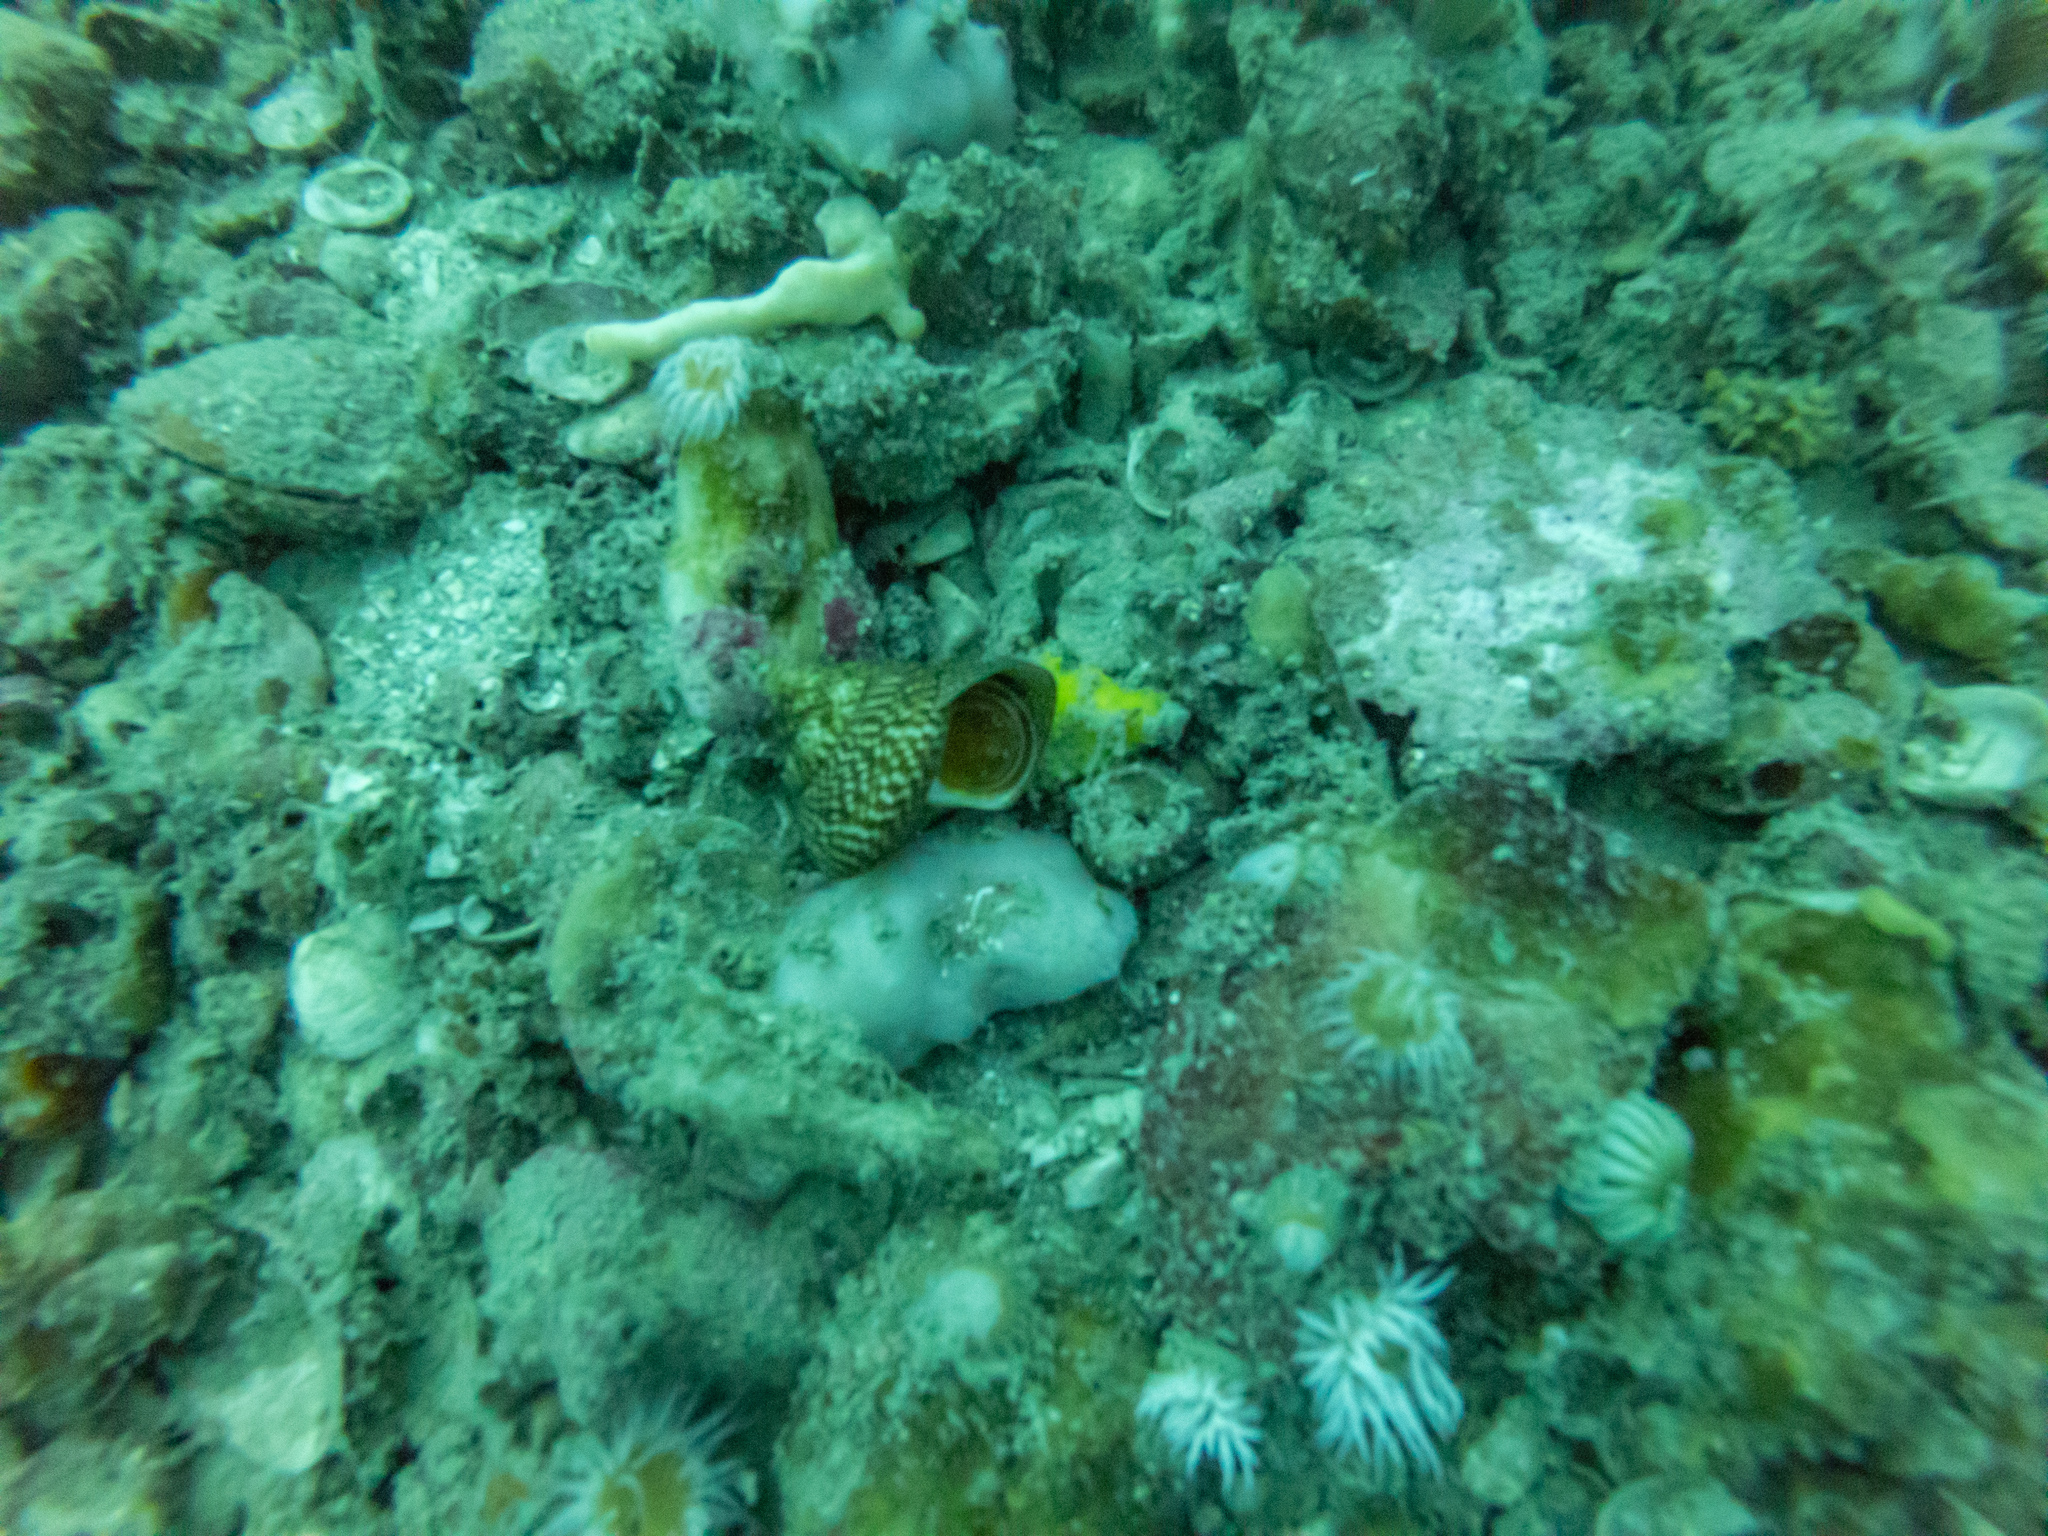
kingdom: Animalia
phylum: Mollusca
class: Gastropoda
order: Trochida
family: Calliostomatidae
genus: Maurea
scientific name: Maurea tigris
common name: Tiger maurea
